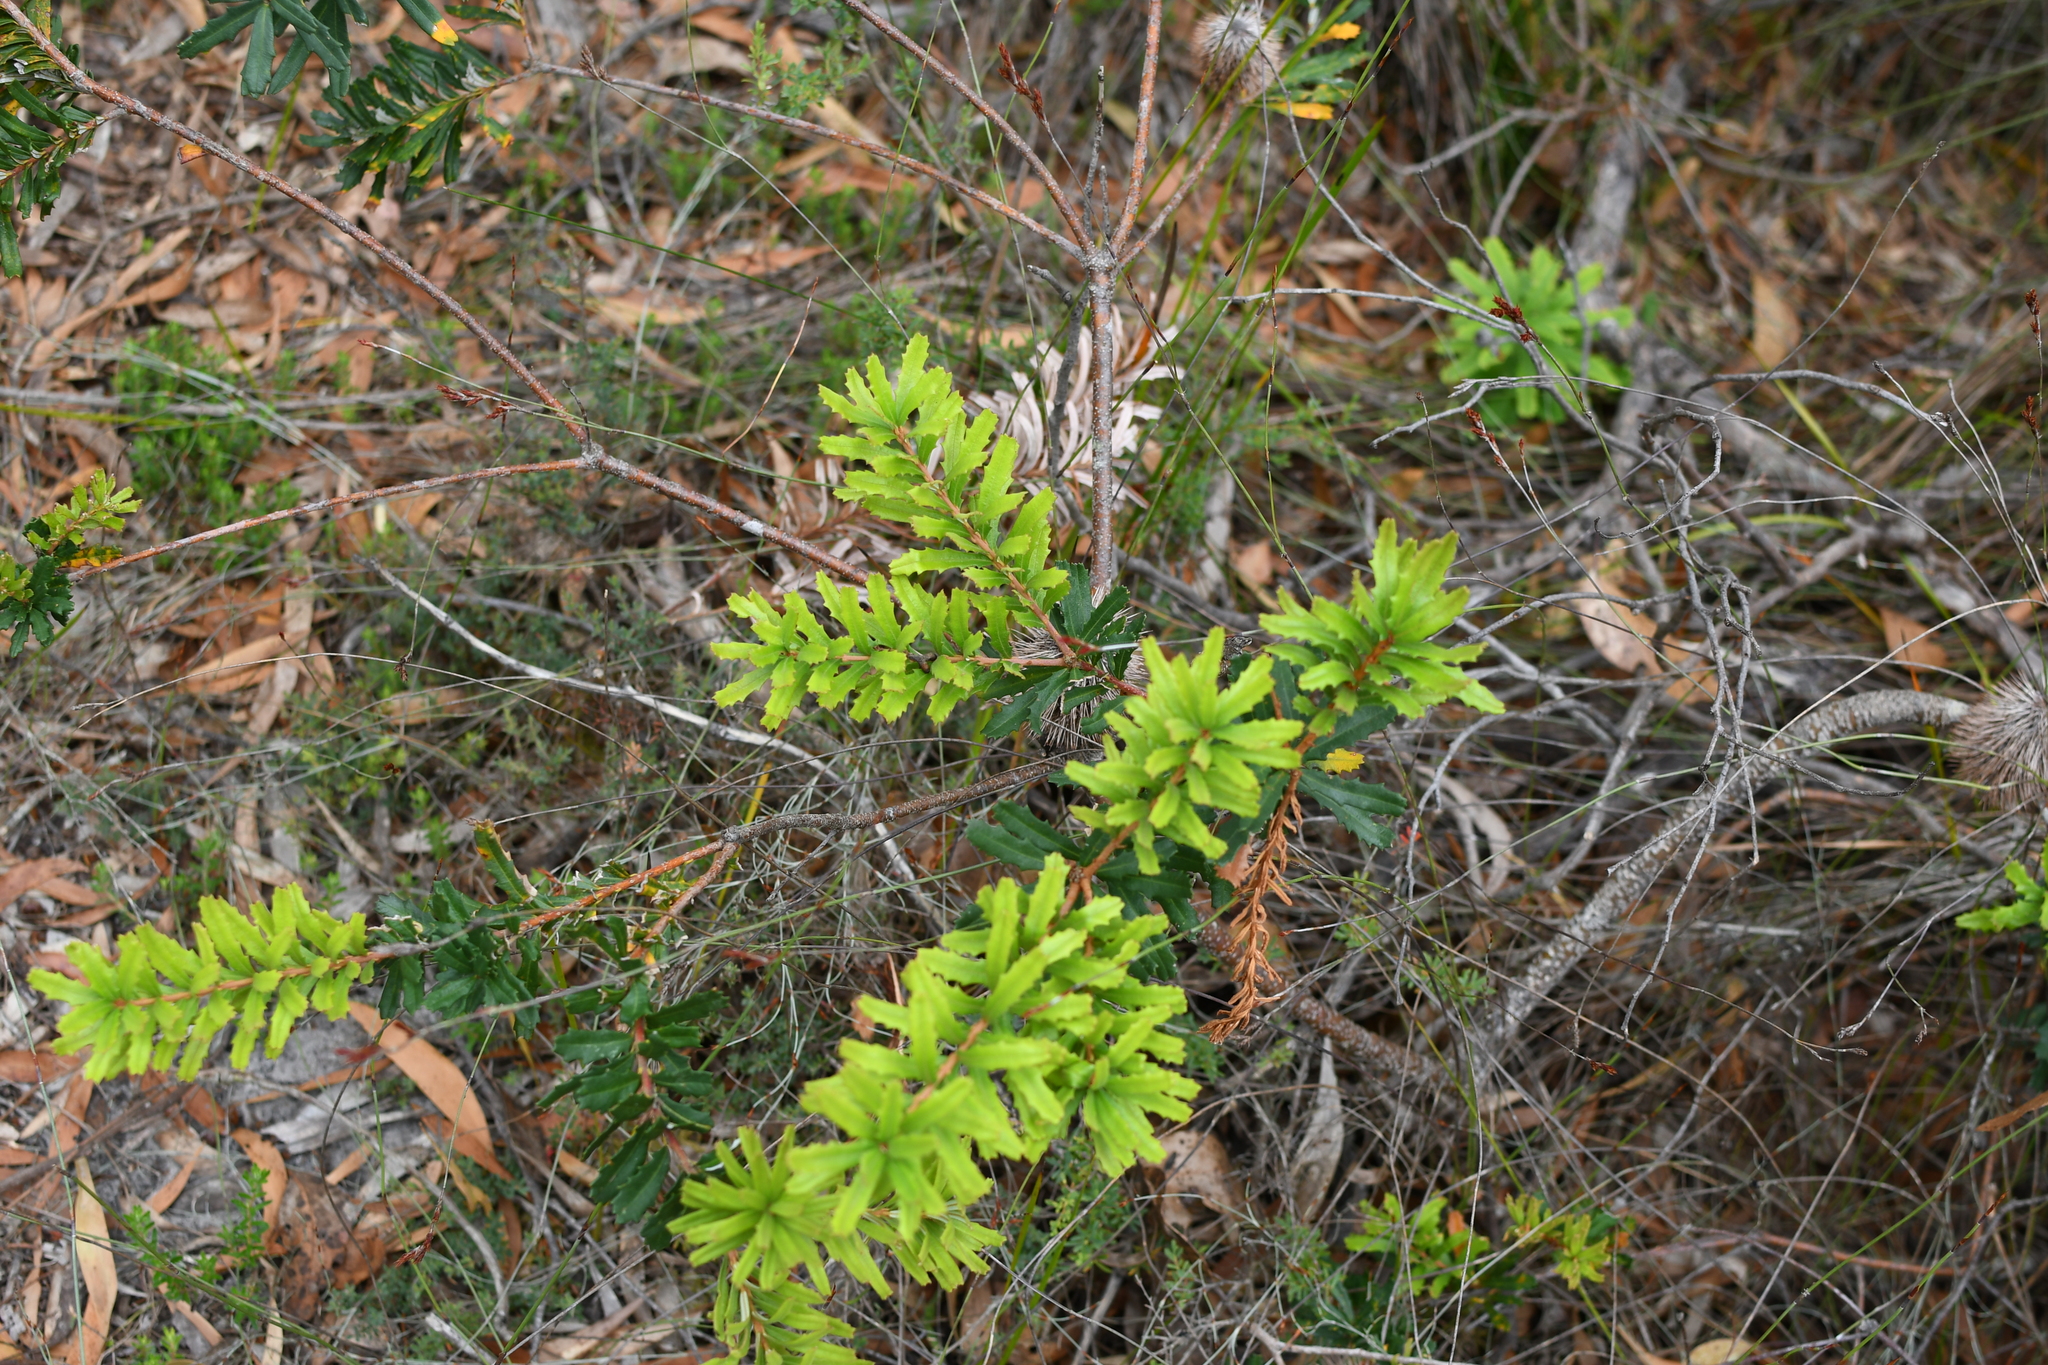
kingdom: Plantae
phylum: Tracheophyta
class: Magnoliopsida
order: Proteales
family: Proteaceae
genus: Banksia
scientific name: Banksia marginata
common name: Silver banksia
